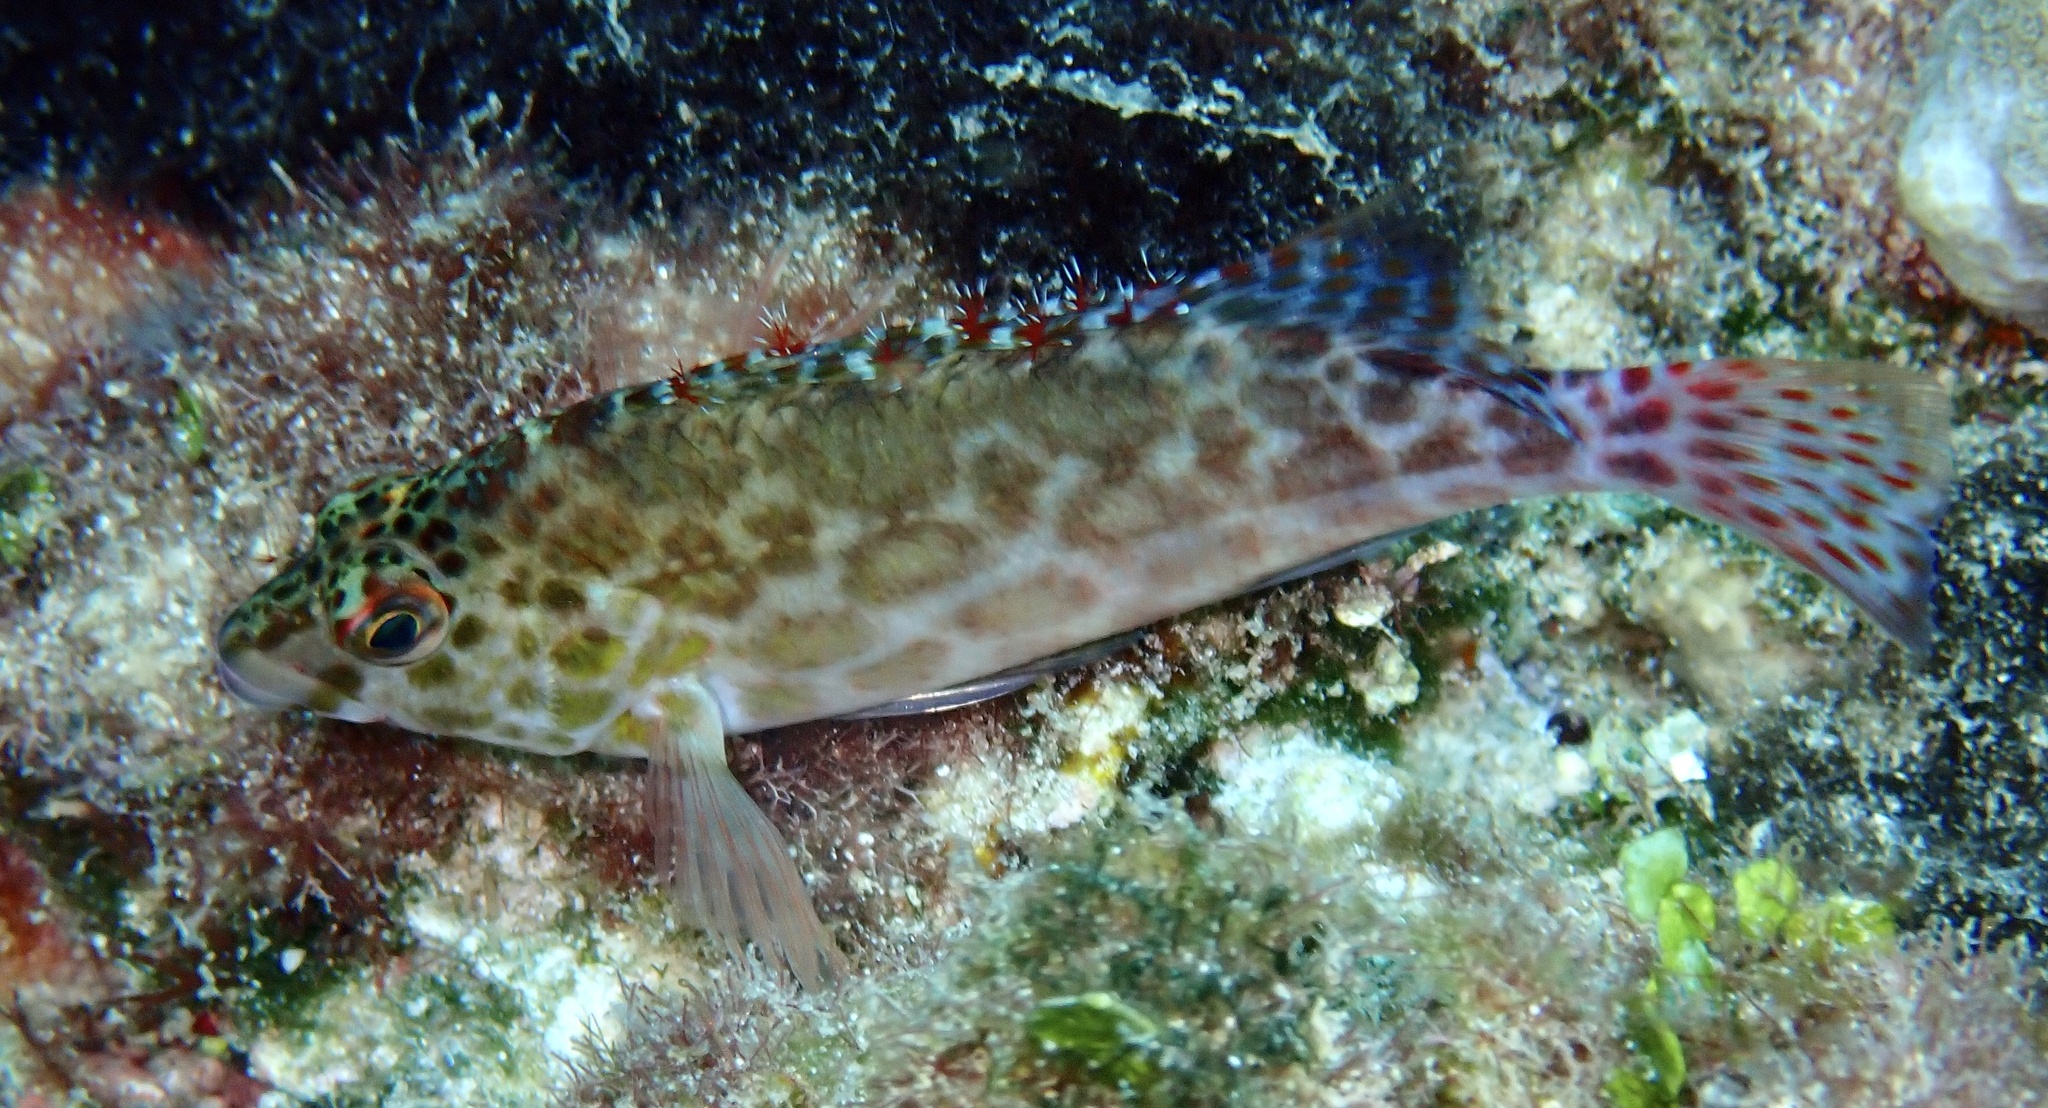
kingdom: Animalia
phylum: Chordata
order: Perciformes
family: Cirrhitidae
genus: Cirrhitichthys
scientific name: Cirrhitichthys oxycephalus
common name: Spotted hawkfish
